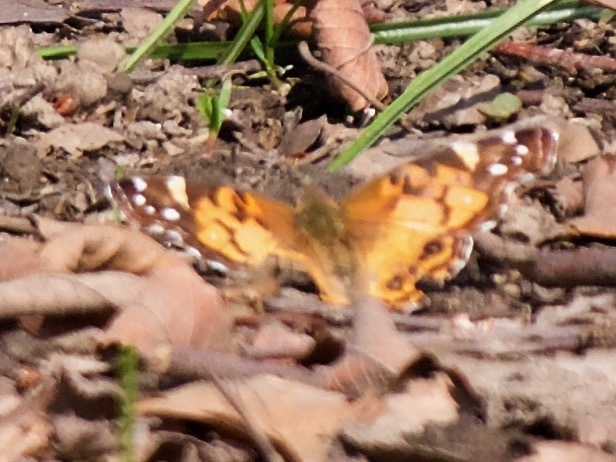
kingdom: Animalia
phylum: Arthropoda
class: Insecta
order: Lepidoptera
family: Nymphalidae
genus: Vanessa
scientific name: Vanessa virginiensis
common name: American lady
